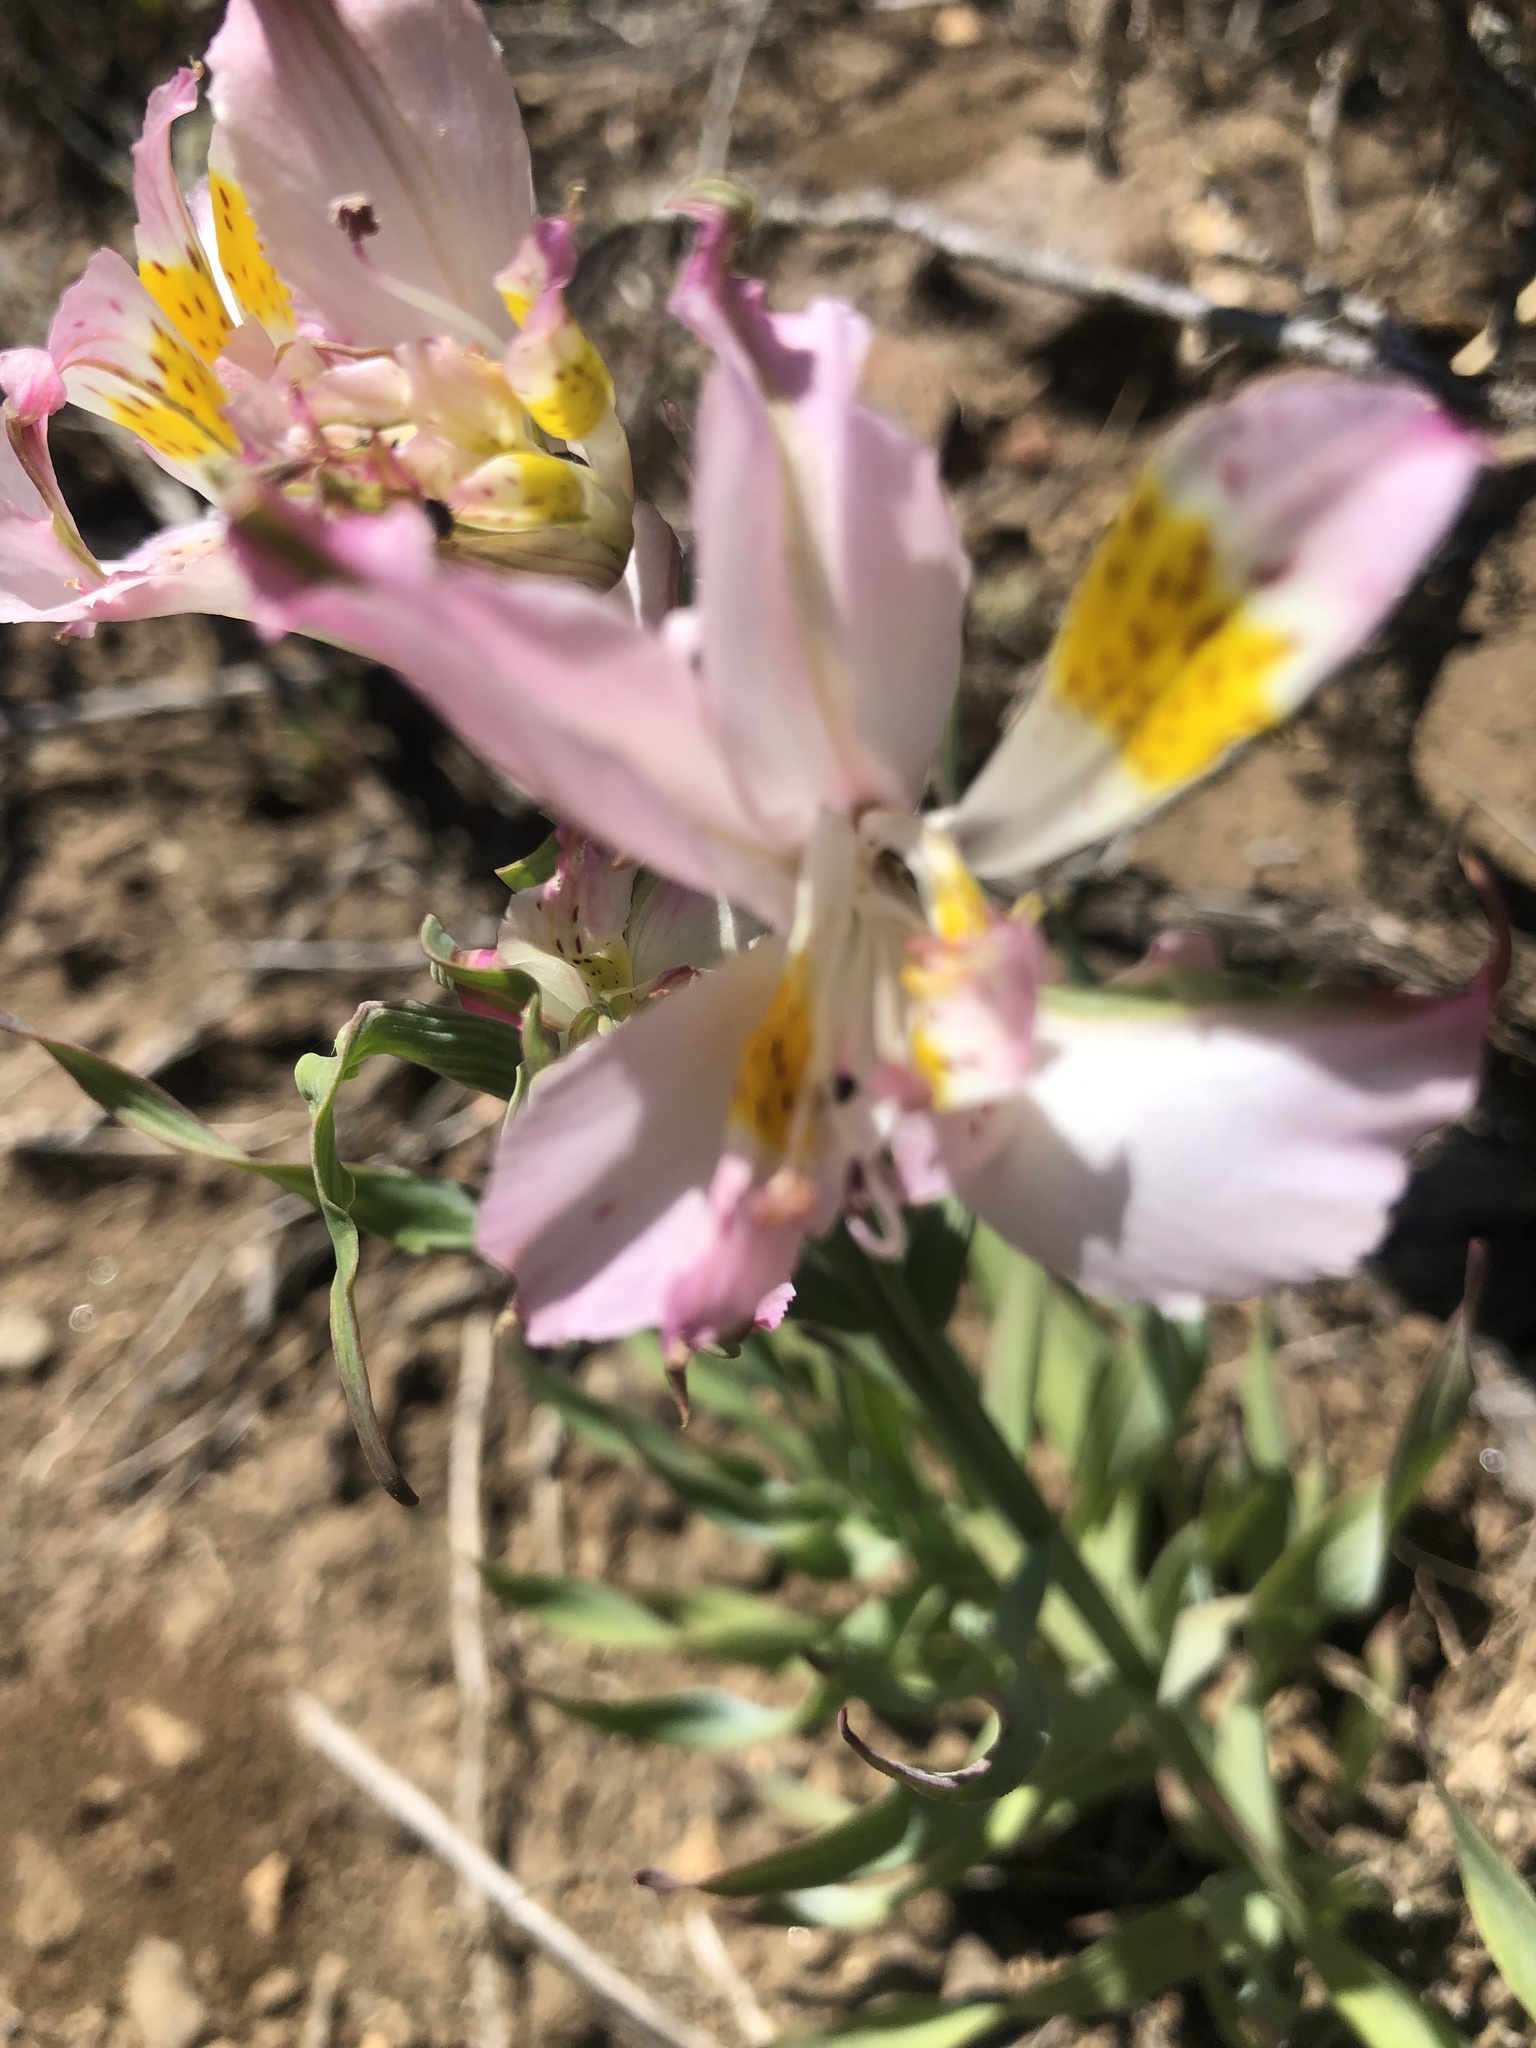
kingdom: Plantae
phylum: Tracheophyta
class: Liliopsida
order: Liliales
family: Alstroemeriaceae
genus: Alstroemeria
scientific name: Alstroemeria pulchra
